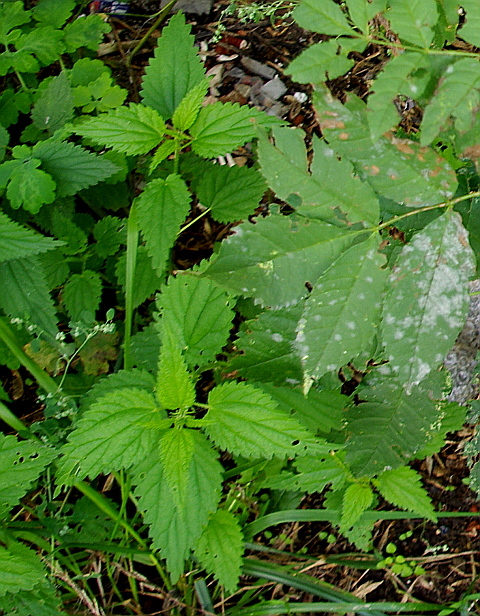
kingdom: Plantae
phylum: Tracheophyta
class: Magnoliopsida
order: Rosales
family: Urticaceae
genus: Urtica
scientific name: Urtica dioica
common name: Common nettle
